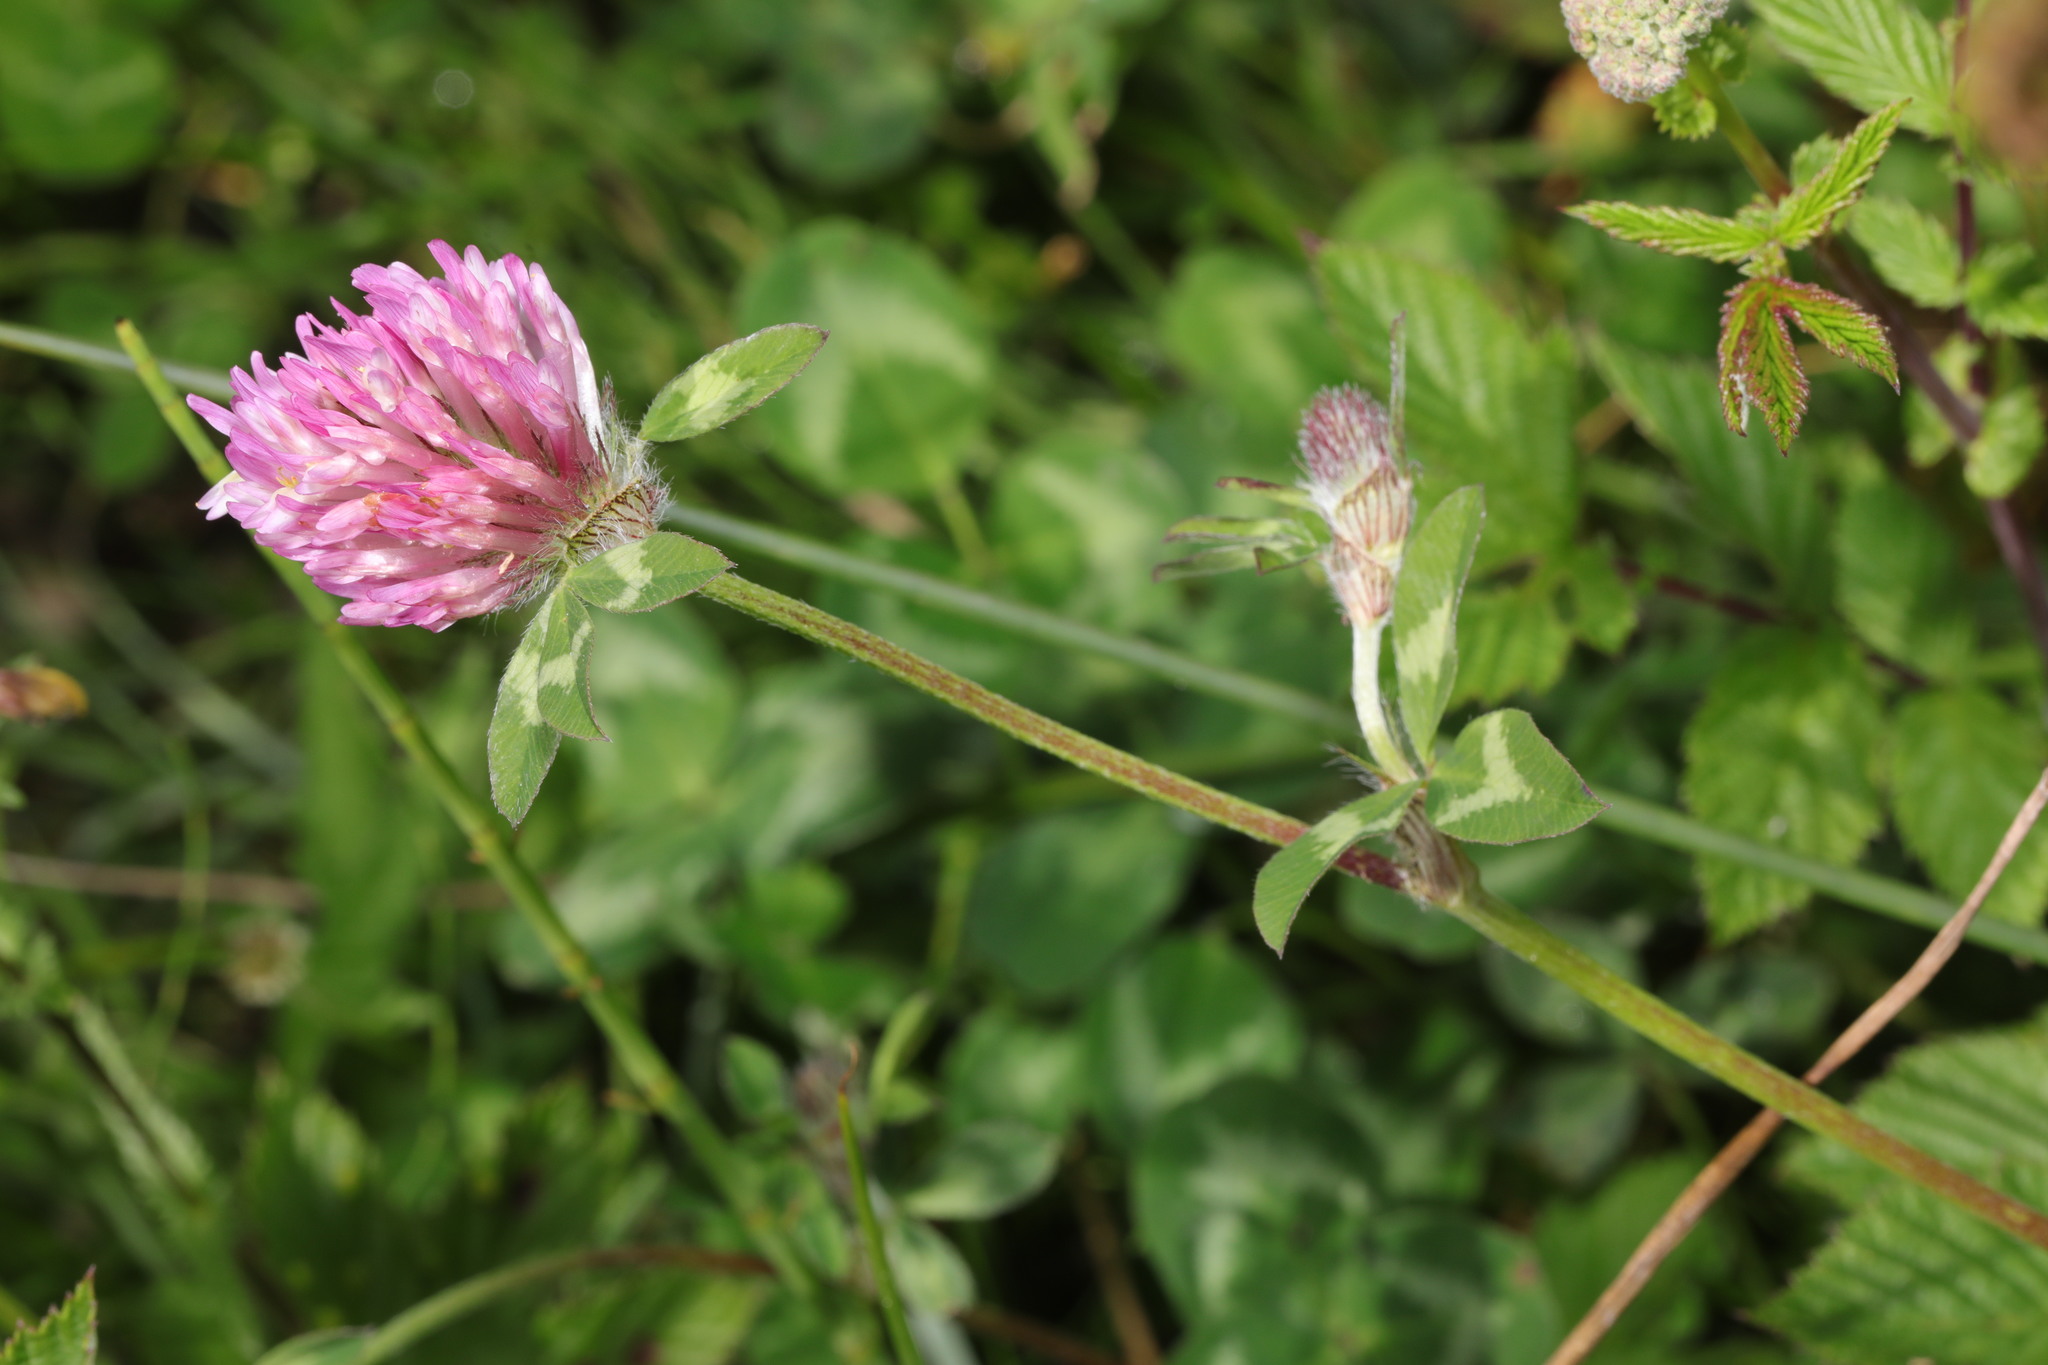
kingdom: Plantae
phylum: Tracheophyta
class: Magnoliopsida
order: Fabales
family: Fabaceae
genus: Trifolium
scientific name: Trifolium pratense
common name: Red clover
